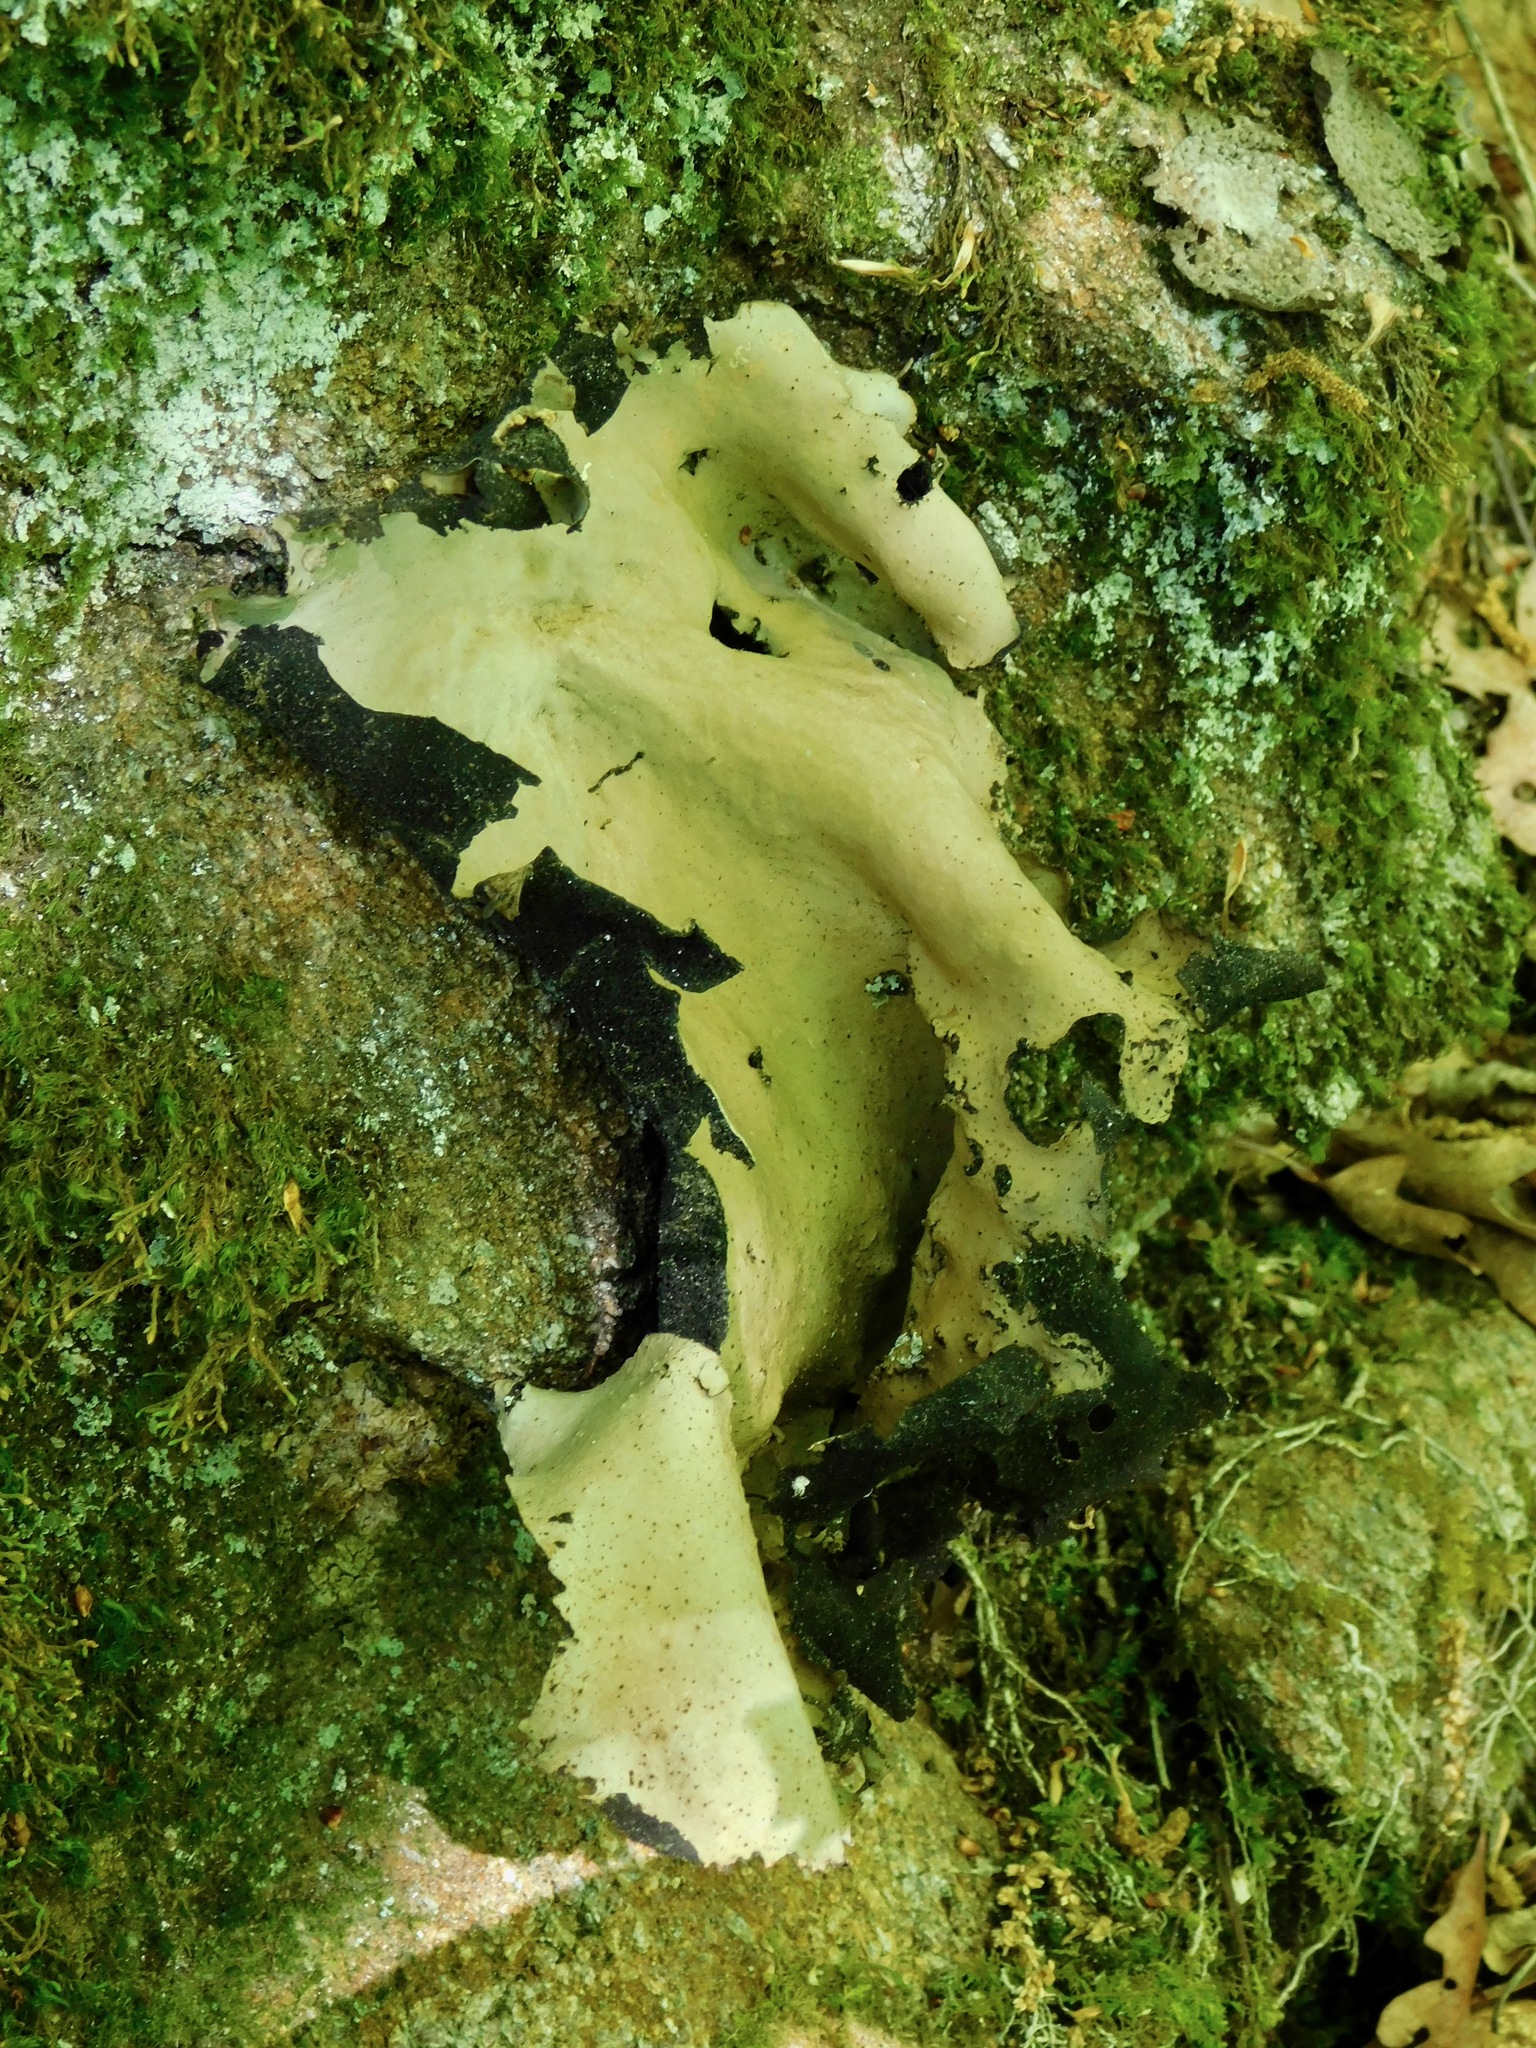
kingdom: Fungi
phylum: Ascomycota
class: Lecanoromycetes
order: Umbilicariales
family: Umbilicariaceae
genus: Umbilicaria
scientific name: Umbilicaria mammulata
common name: Smooth rock tripe
